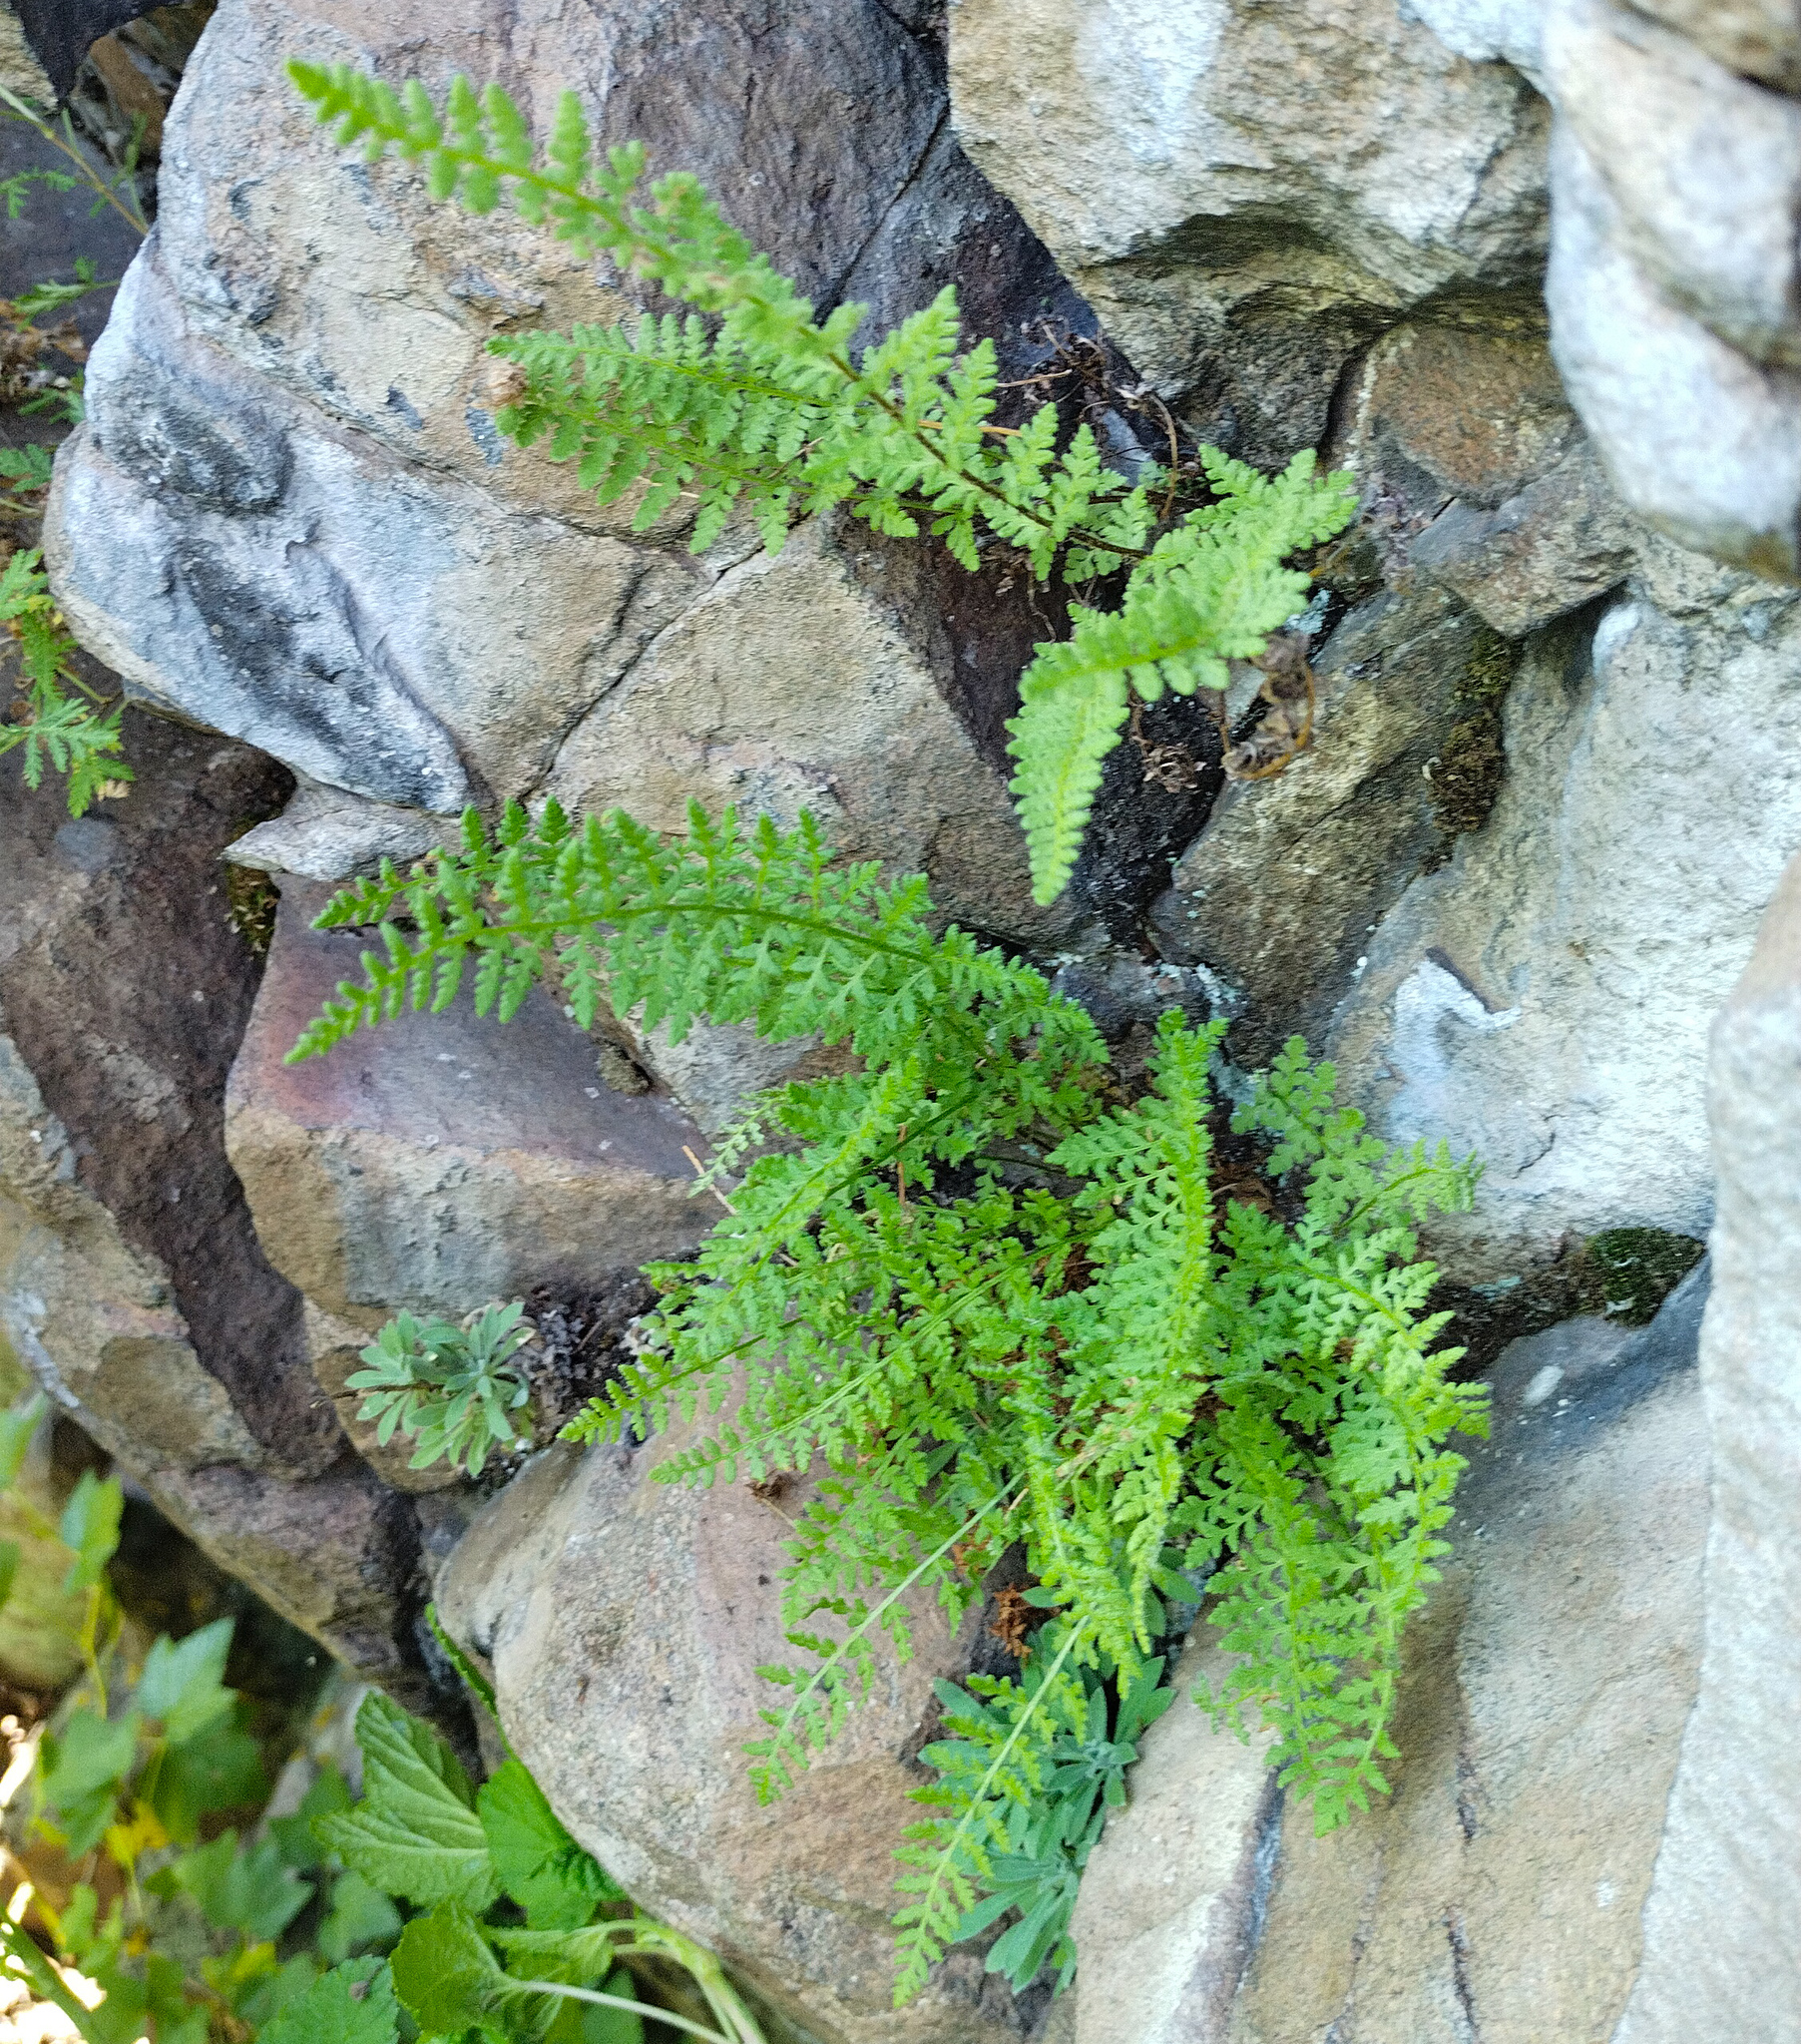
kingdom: Plantae
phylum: Tracheophyta
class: Polypodiopsida
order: Polypodiales
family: Woodsiaceae
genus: Woodsia
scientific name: Woodsia ilvensis
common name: Fragrant woodsia
